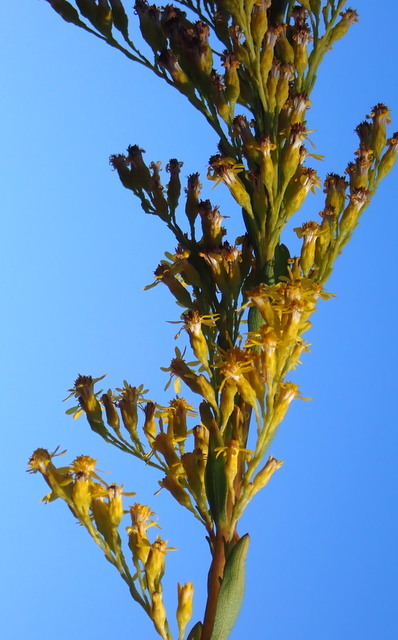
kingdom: Plantae
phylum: Tracheophyta
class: Magnoliopsida
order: Asterales
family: Asteraceae
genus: Solidago
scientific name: Solidago mexicana
